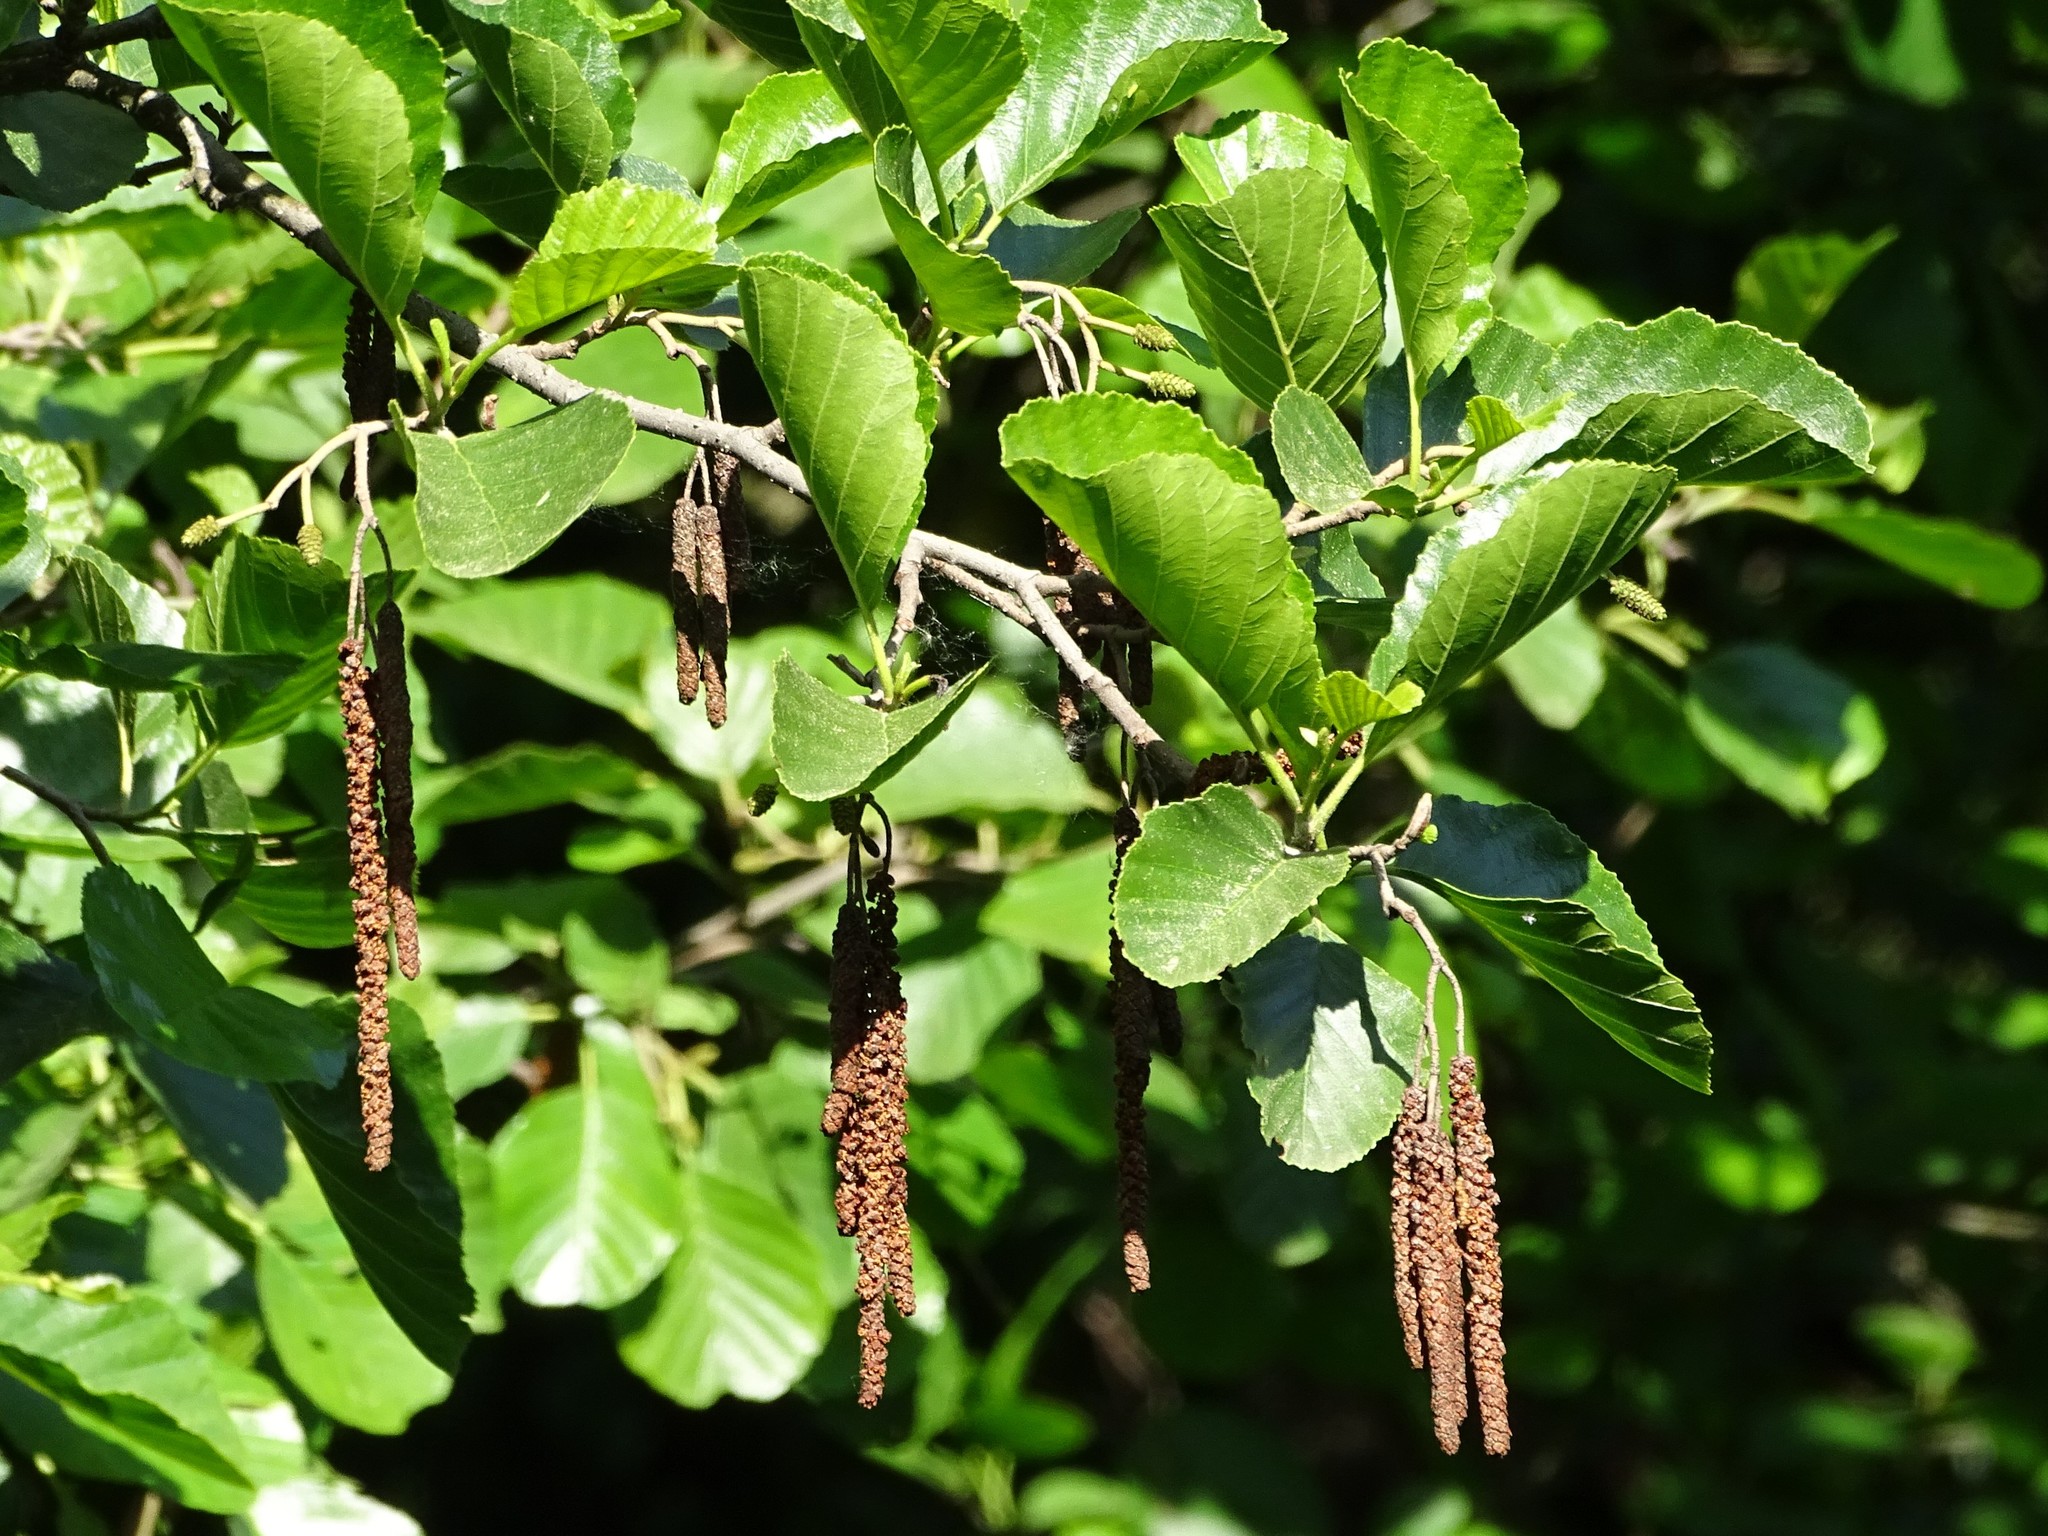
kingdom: Plantae
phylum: Tracheophyta
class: Magnoliopsida
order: Fagales
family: Betulaceae
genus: Alnus
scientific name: Alnus glutinosa
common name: Black alder
